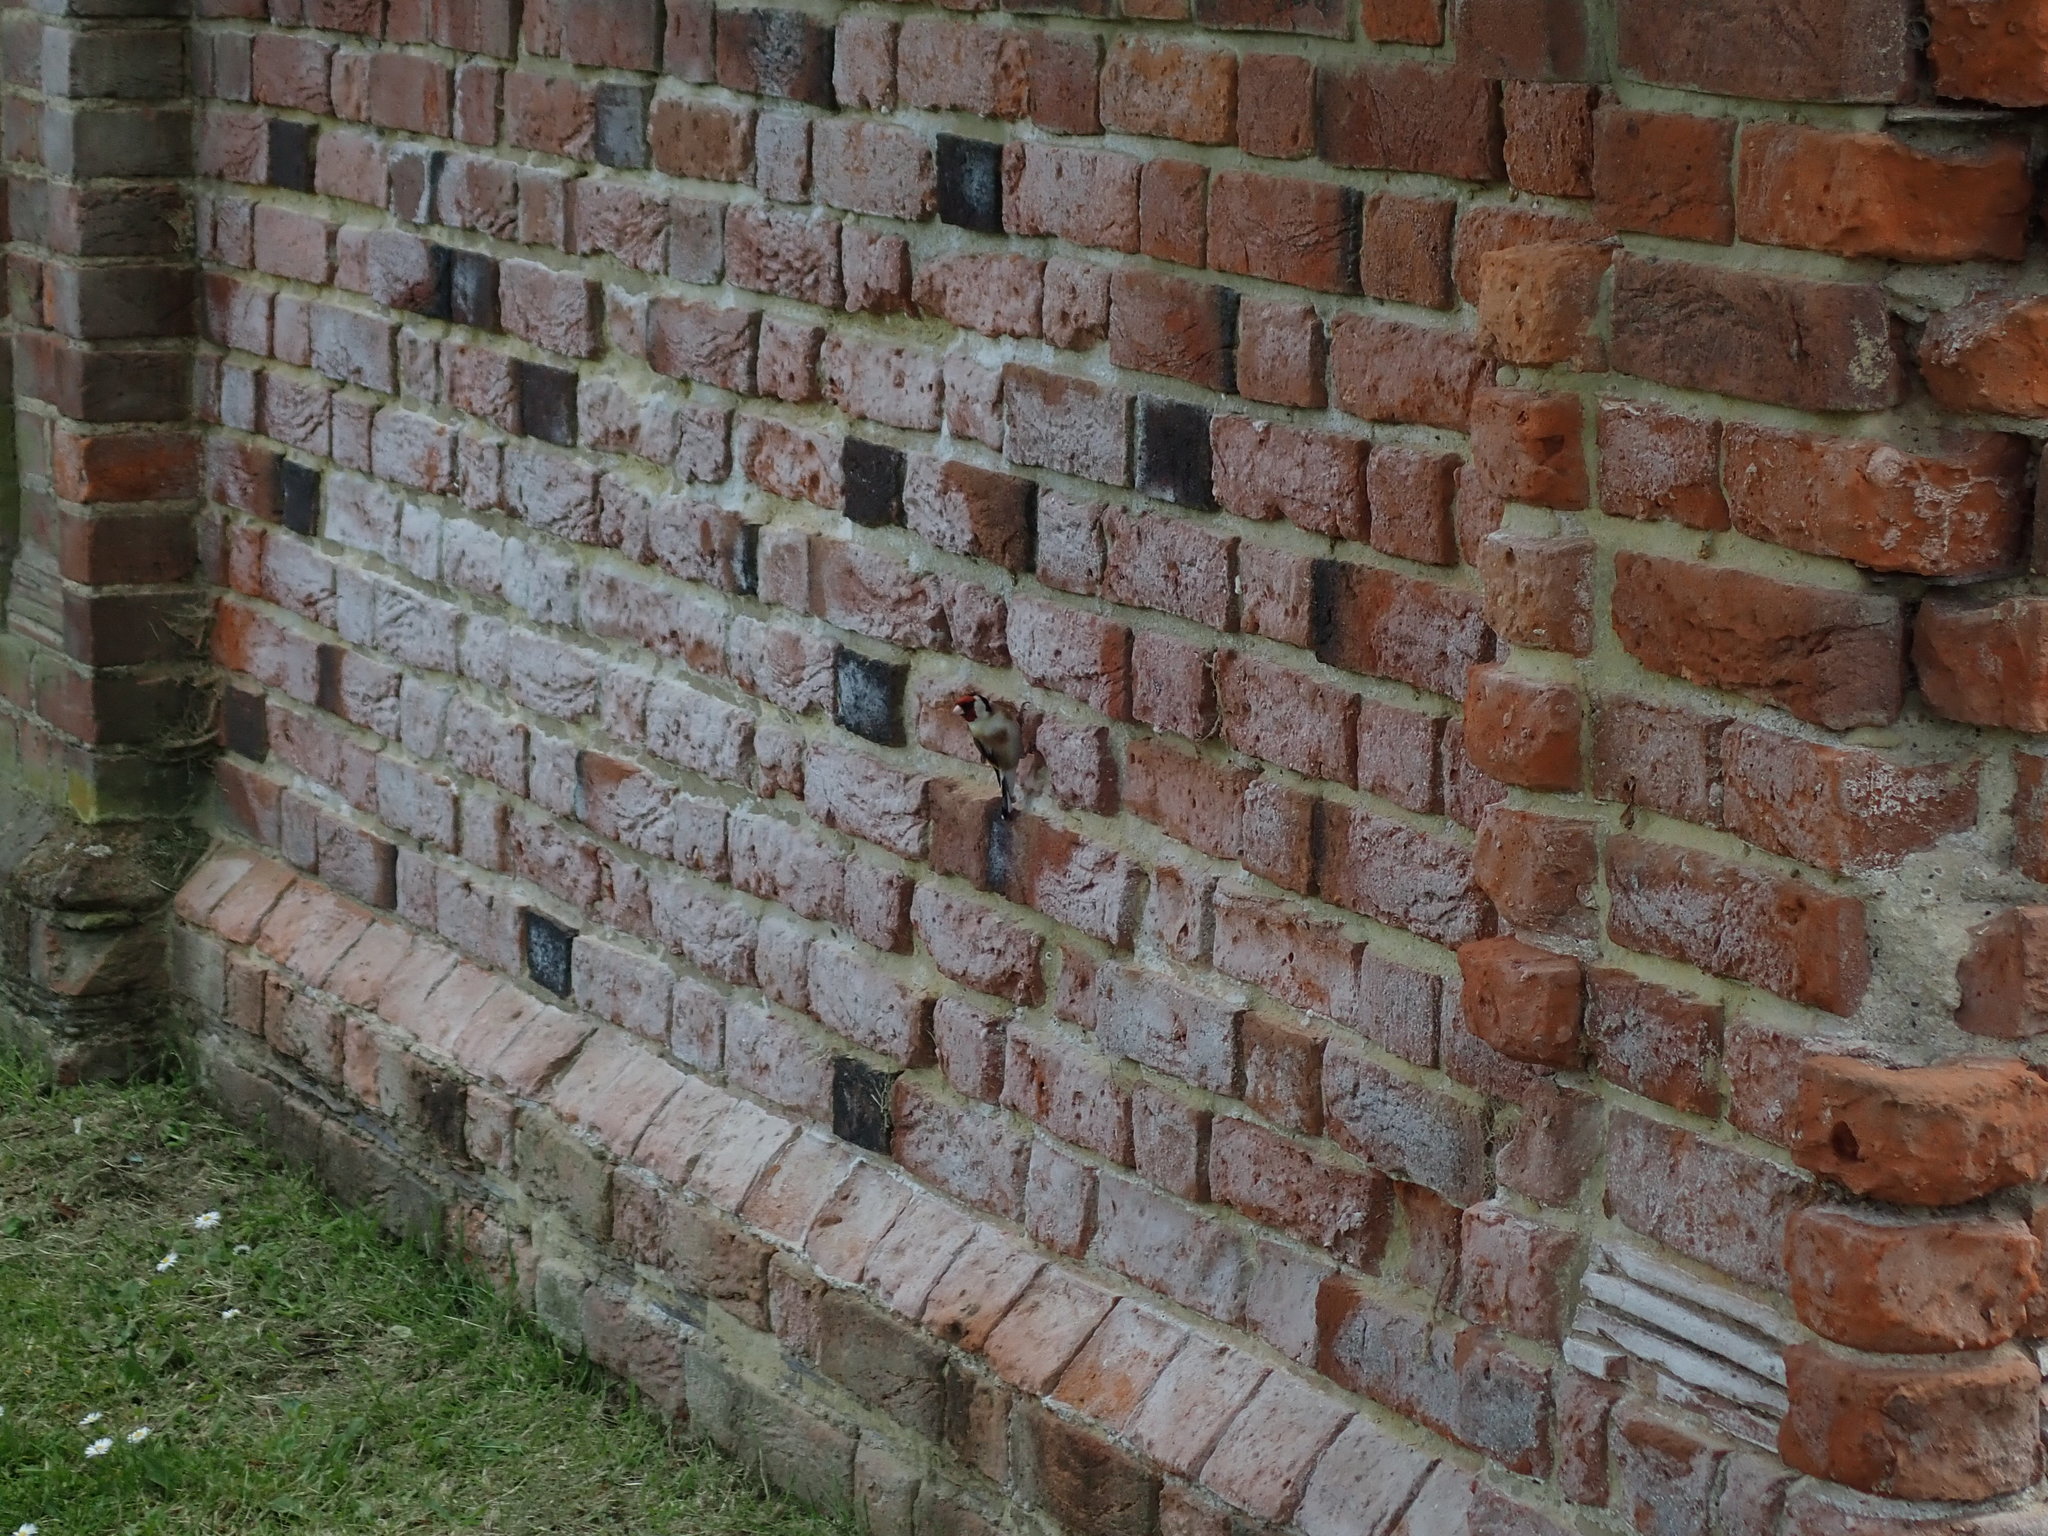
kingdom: Animalia
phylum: Chordata
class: Aves
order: Passeriformes
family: Fringillidae
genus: Carduelis
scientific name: Carduelis carduelis
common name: European goldfinch
